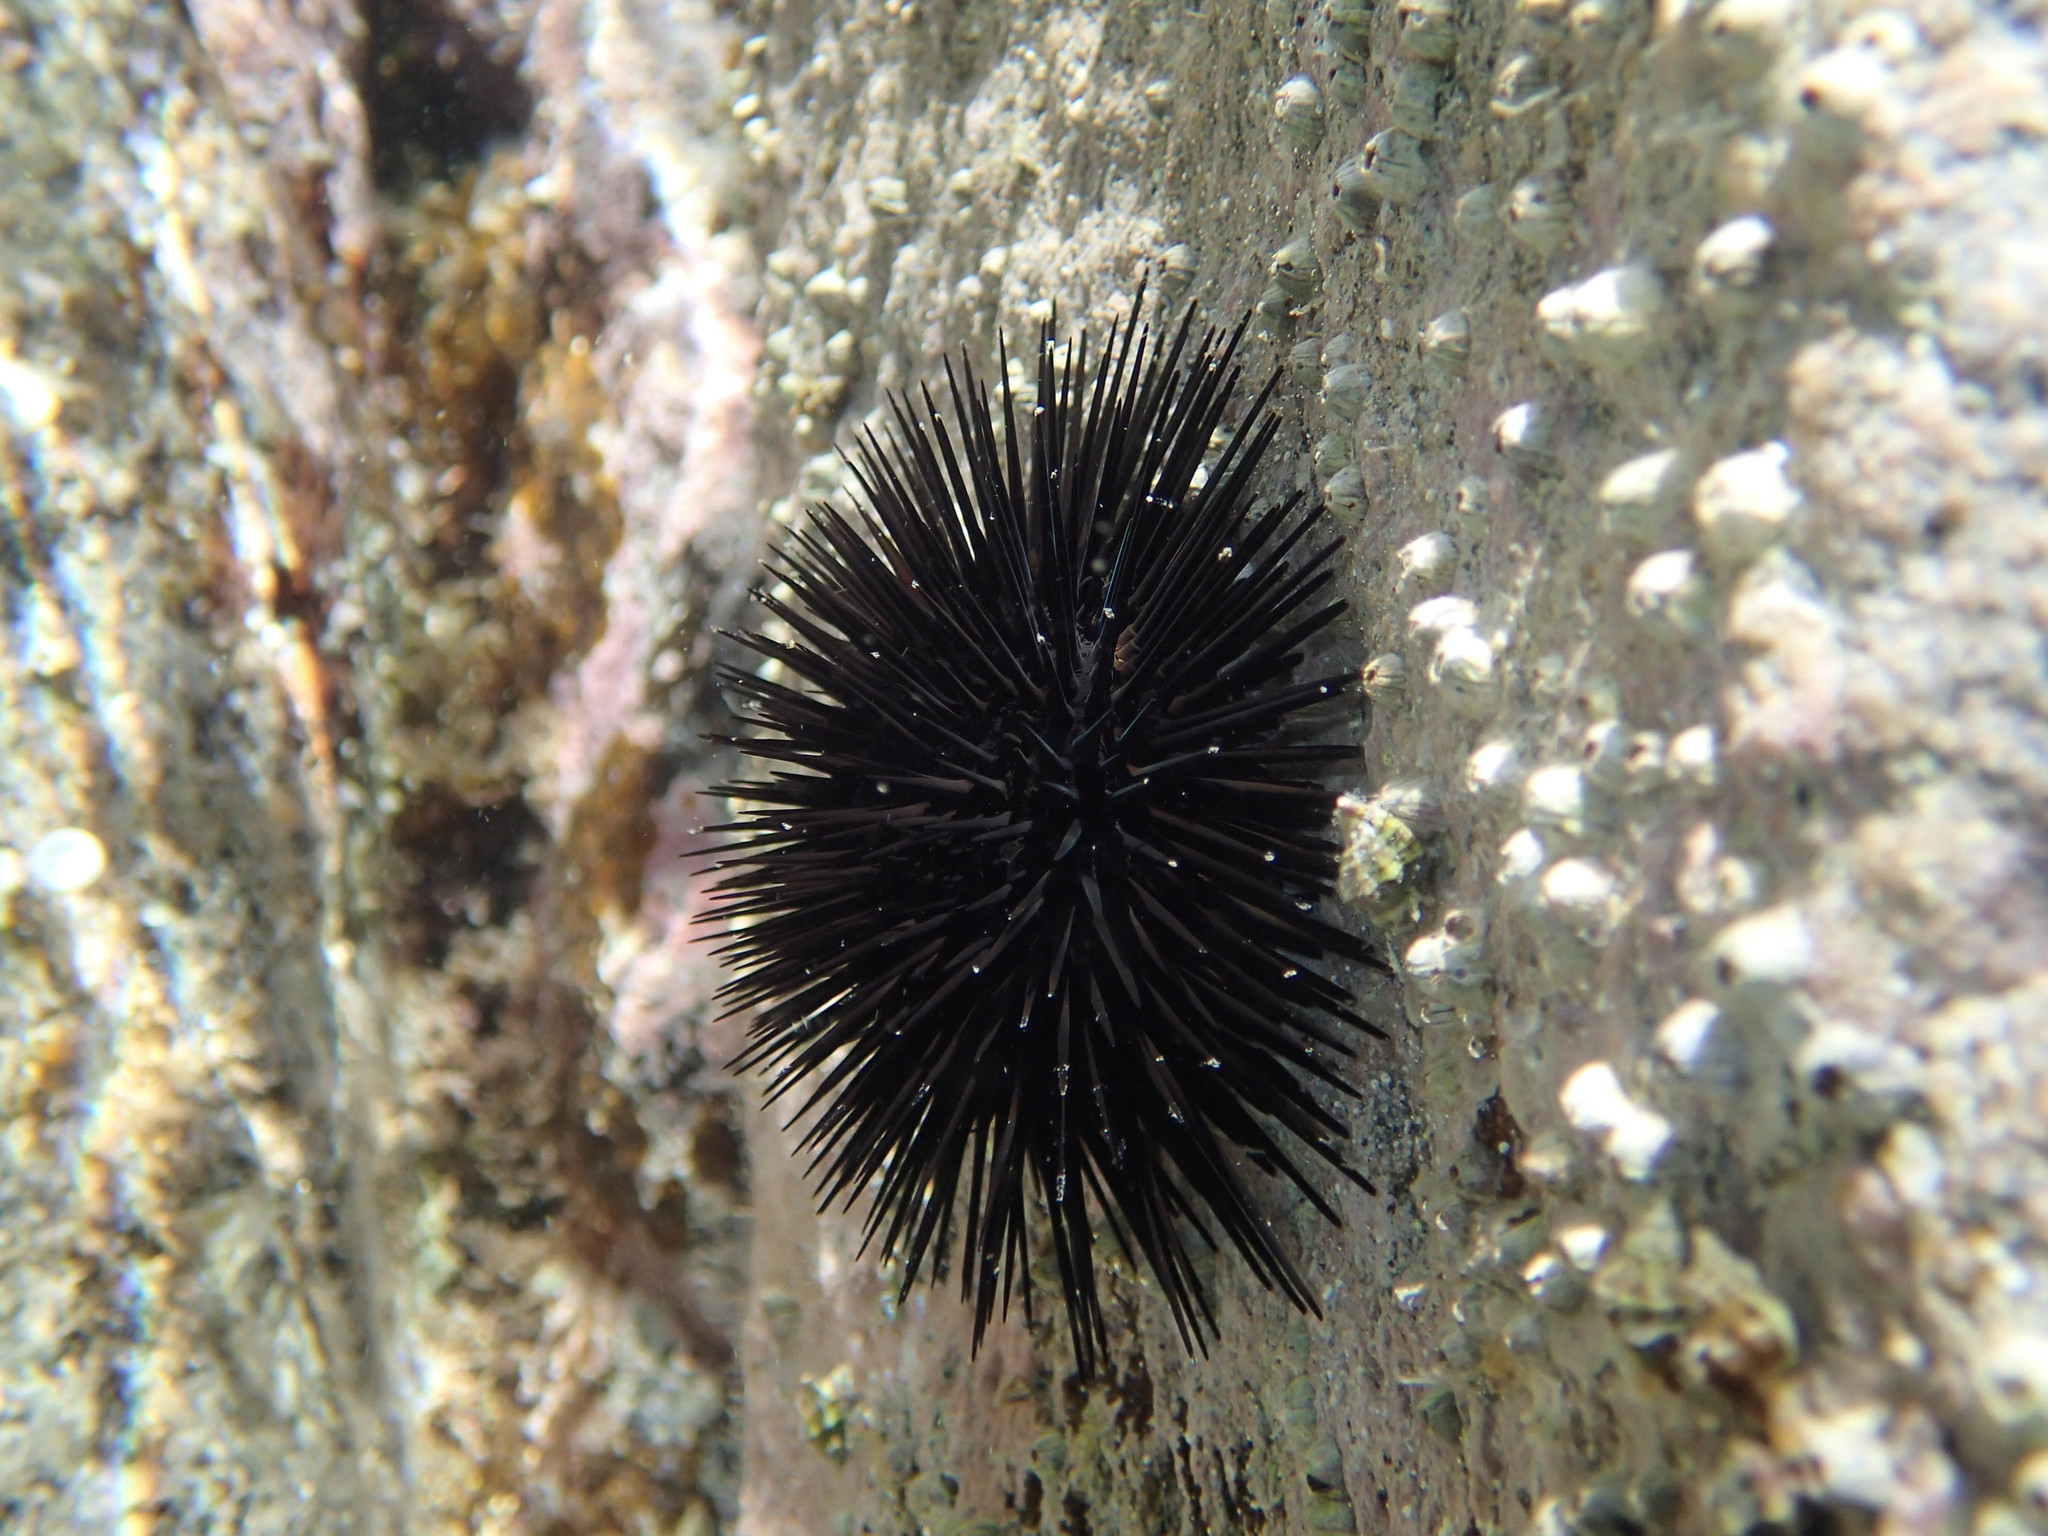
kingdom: Animalia
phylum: Echinodermata
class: Echinoidea
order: Arbacioida
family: Arbaciidae
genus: Arbacia
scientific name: Arbacia lixula
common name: Black sea urchin
